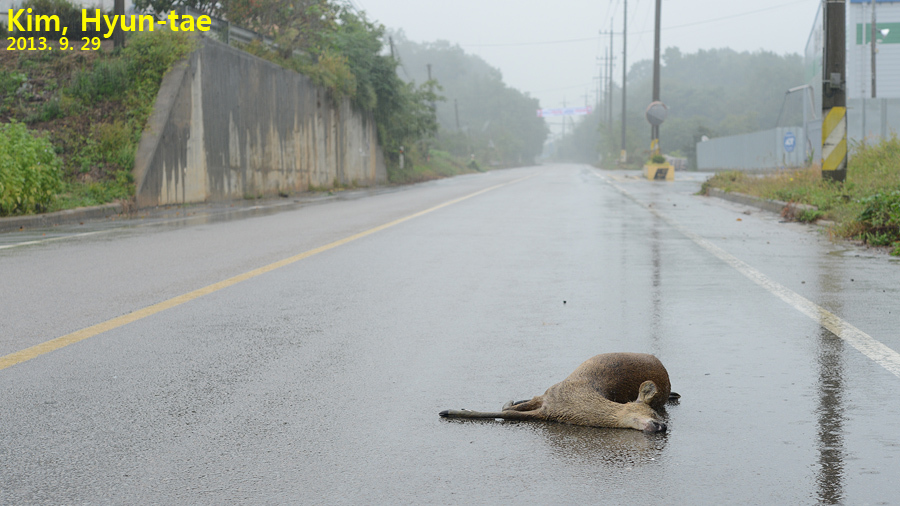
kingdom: Animalia
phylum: Chordata
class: Mammalia
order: Artiodactyla
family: Cervidae
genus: Hydropotes
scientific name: Hydropotes inermis
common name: Chinese water deer
